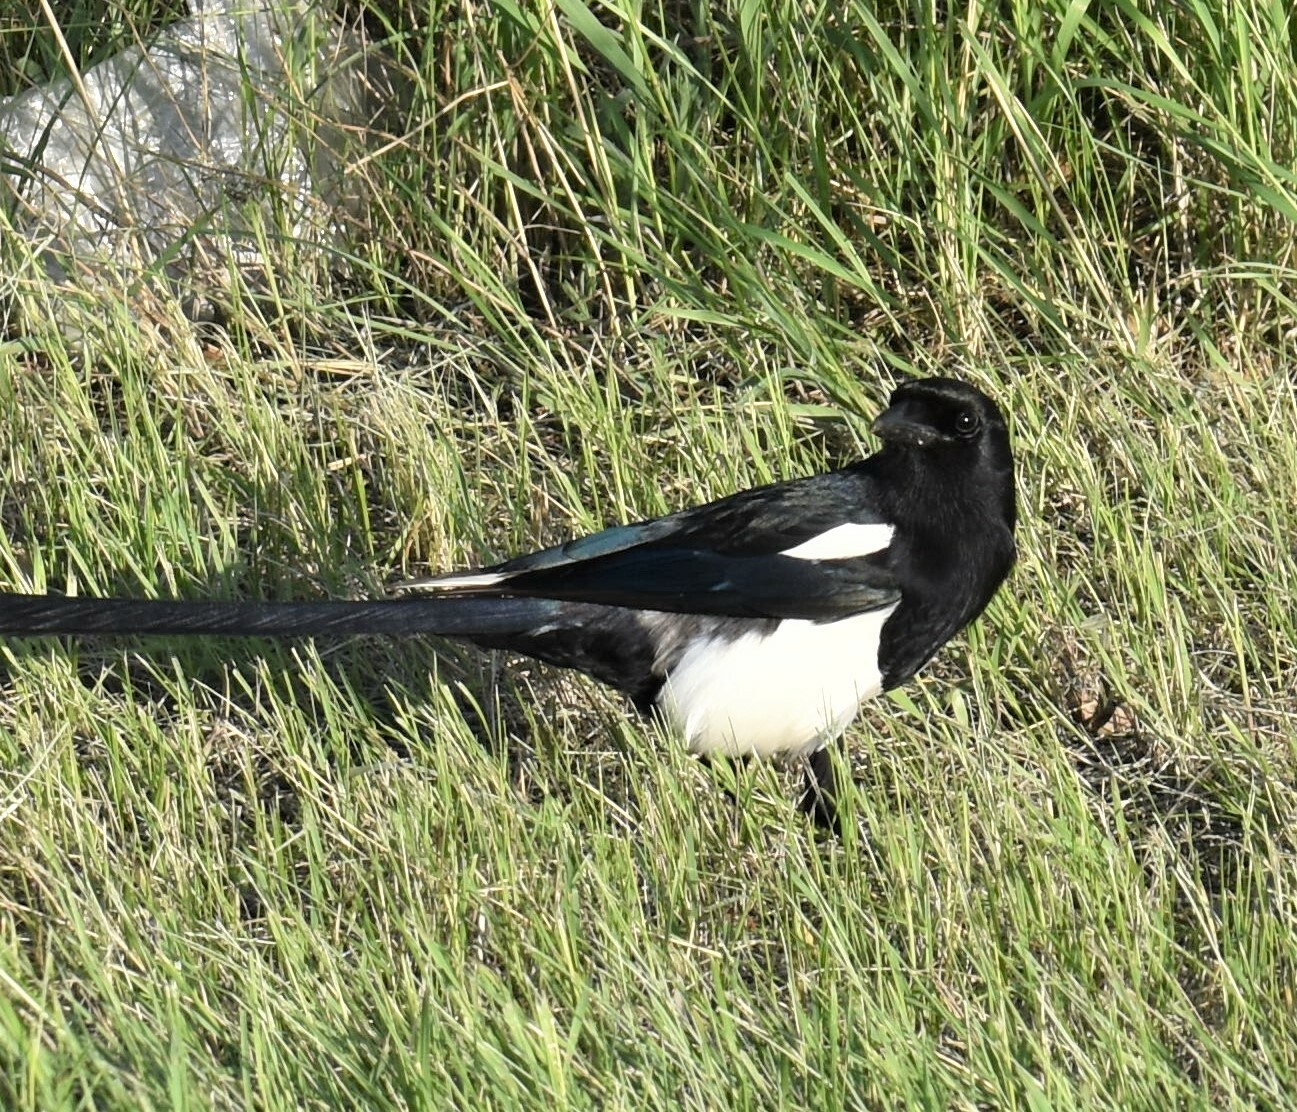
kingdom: Animalia
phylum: Chordata
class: Aves
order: Passeriformes
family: Corvidae
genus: Pica
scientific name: Pica hudsonia
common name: Black-billed magpie
